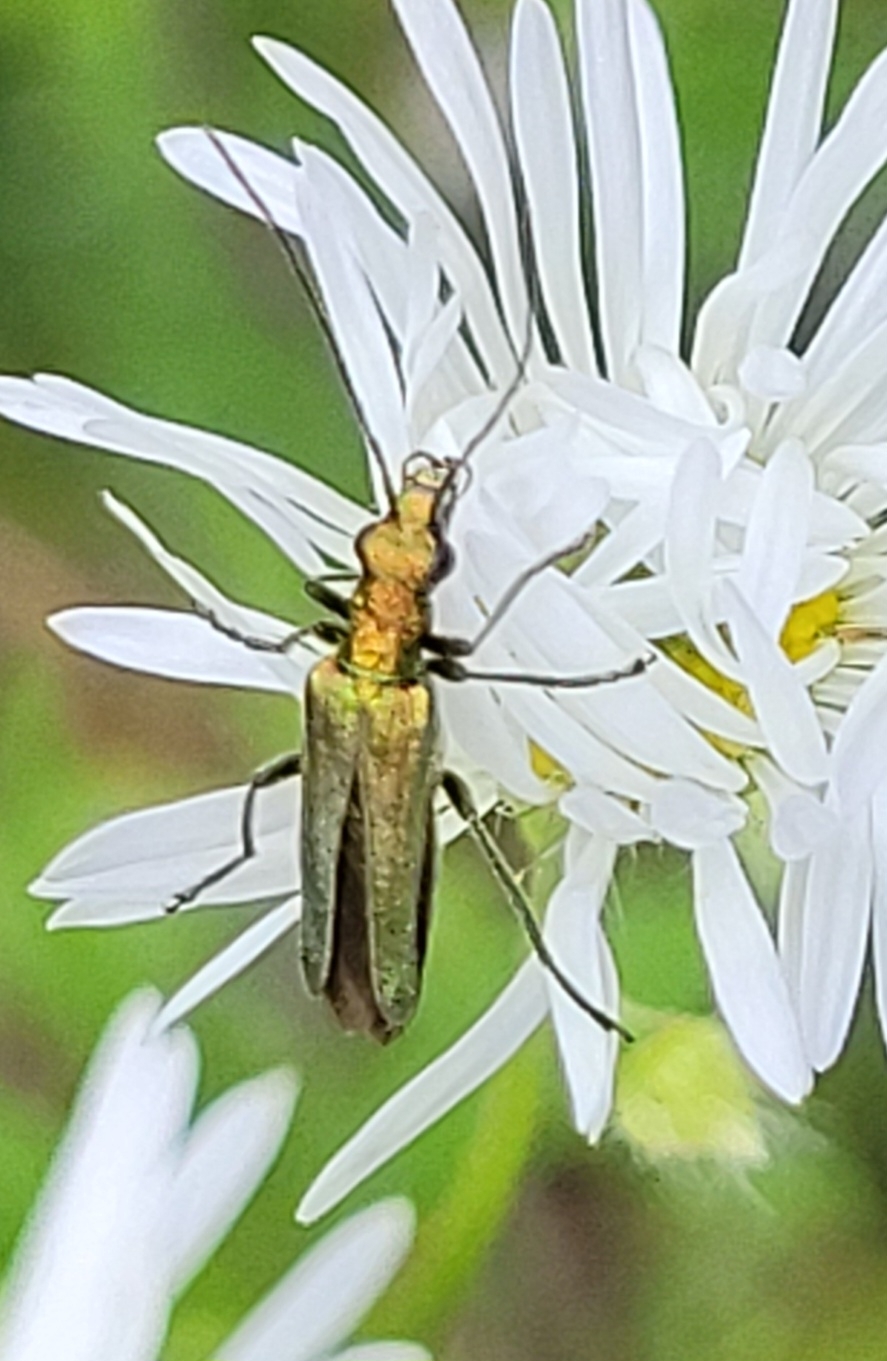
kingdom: Animalia
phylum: Arthropoda
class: Insecta
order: Coleoptera
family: Oedemeridae
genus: Oedemera
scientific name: Oedemera nobilis
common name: Swollen-thighed beetle
